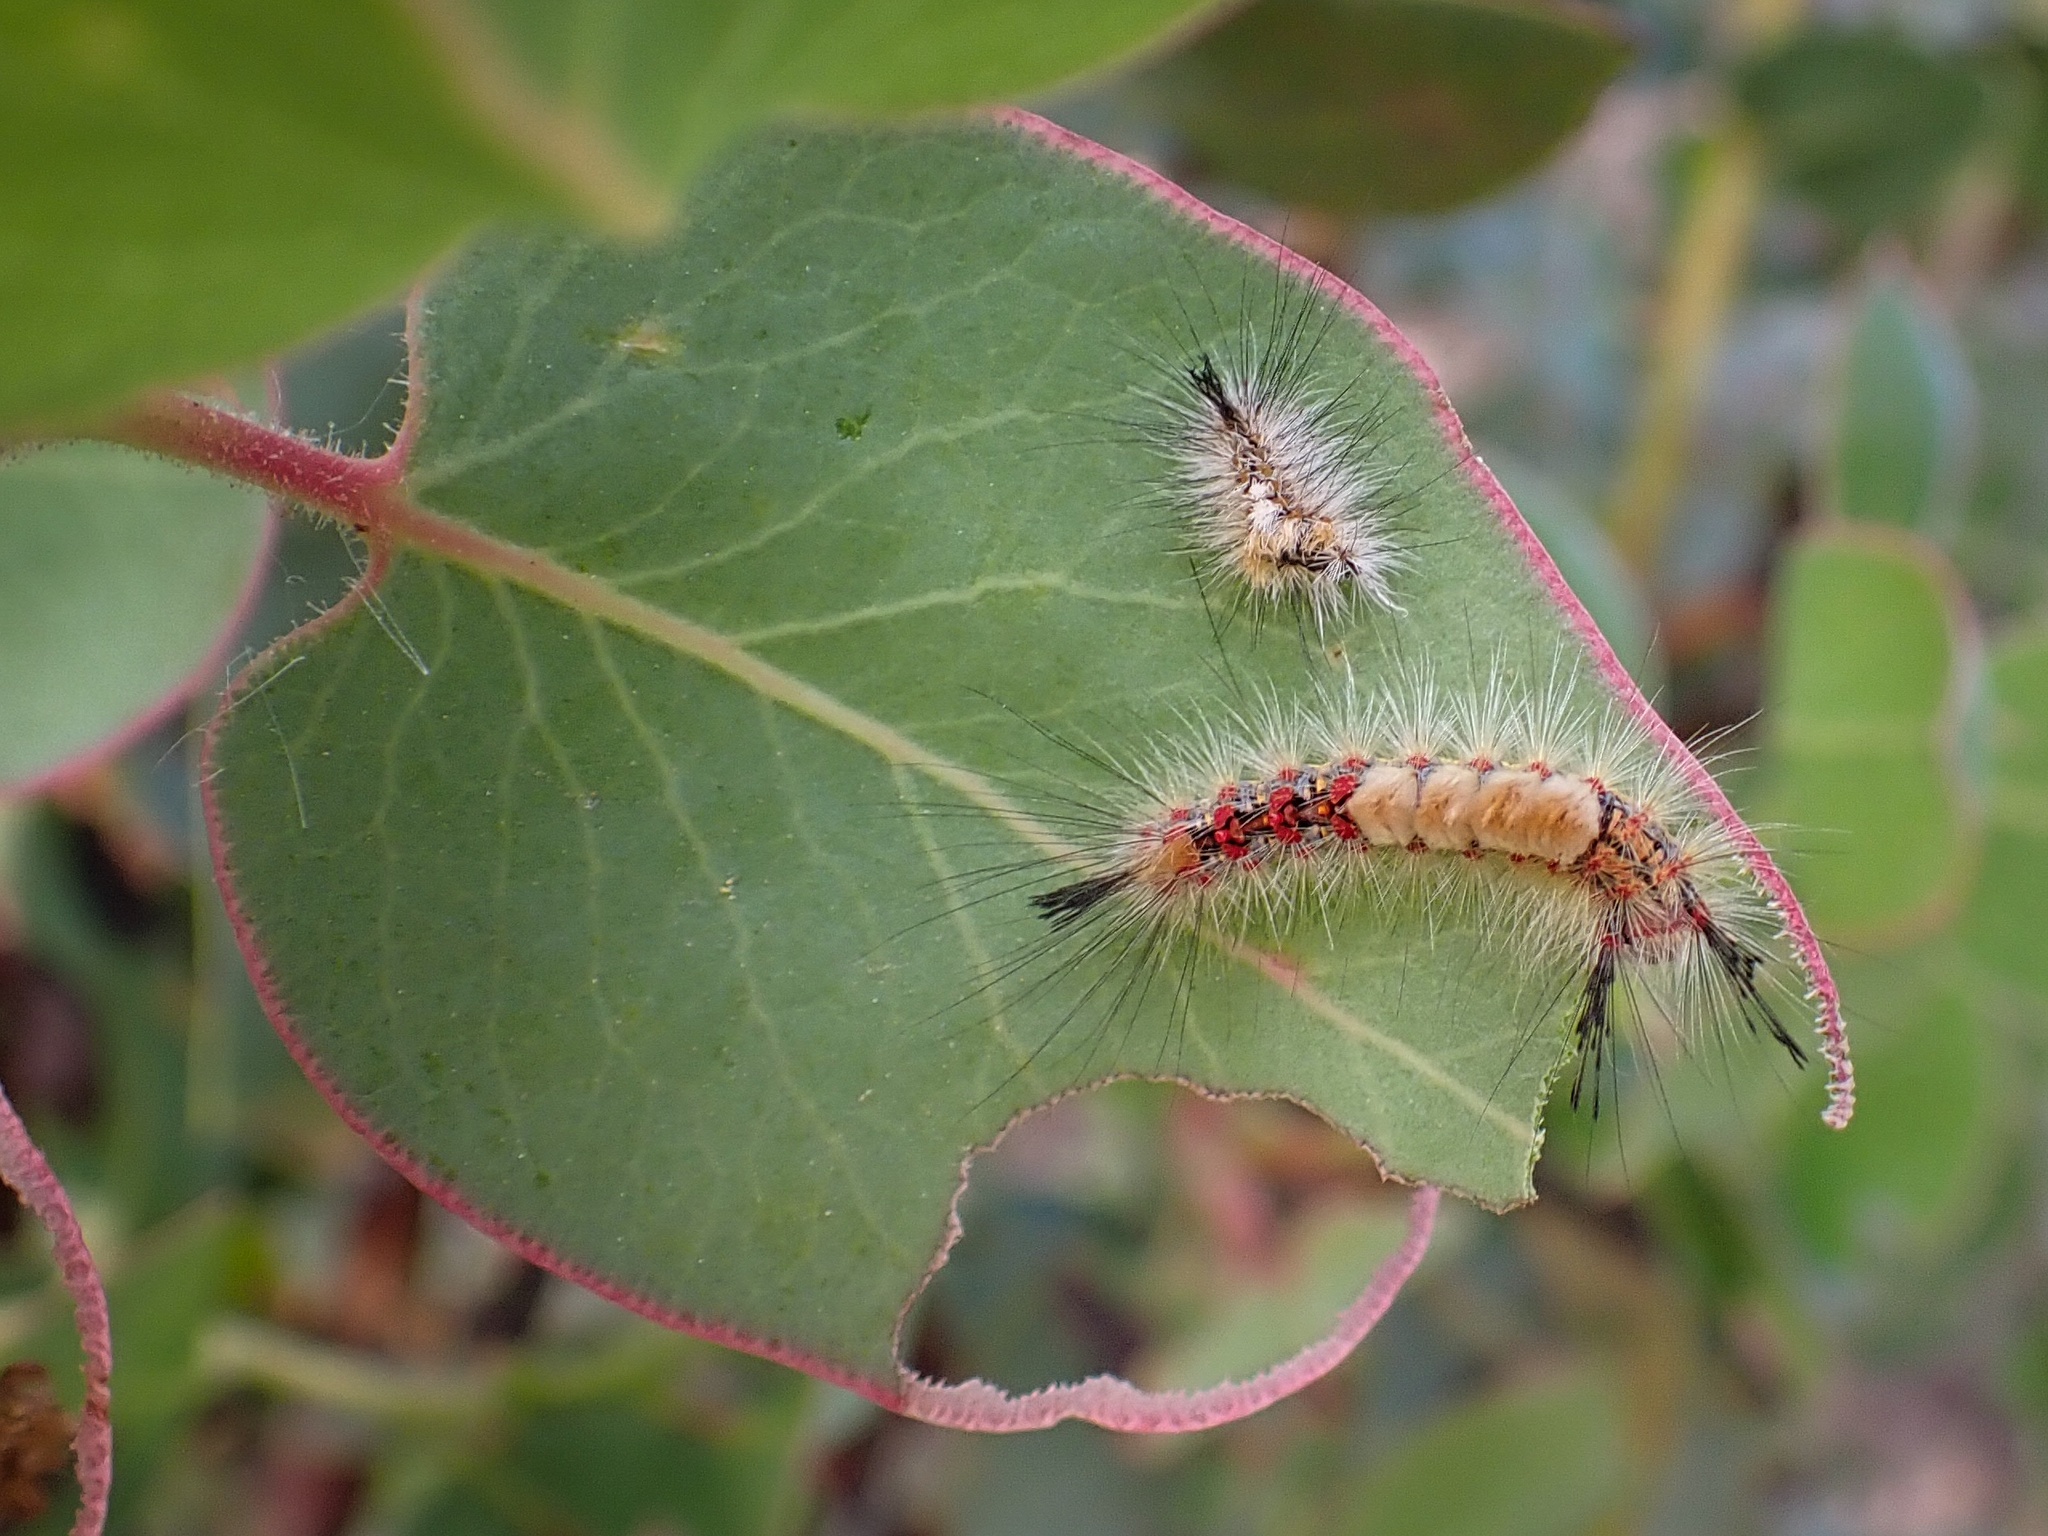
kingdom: Animalia
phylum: Arthropoda
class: Insecta
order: Lepidoptera
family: Erebidae
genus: Orgyia
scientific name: Orgyia pseudotsugata
